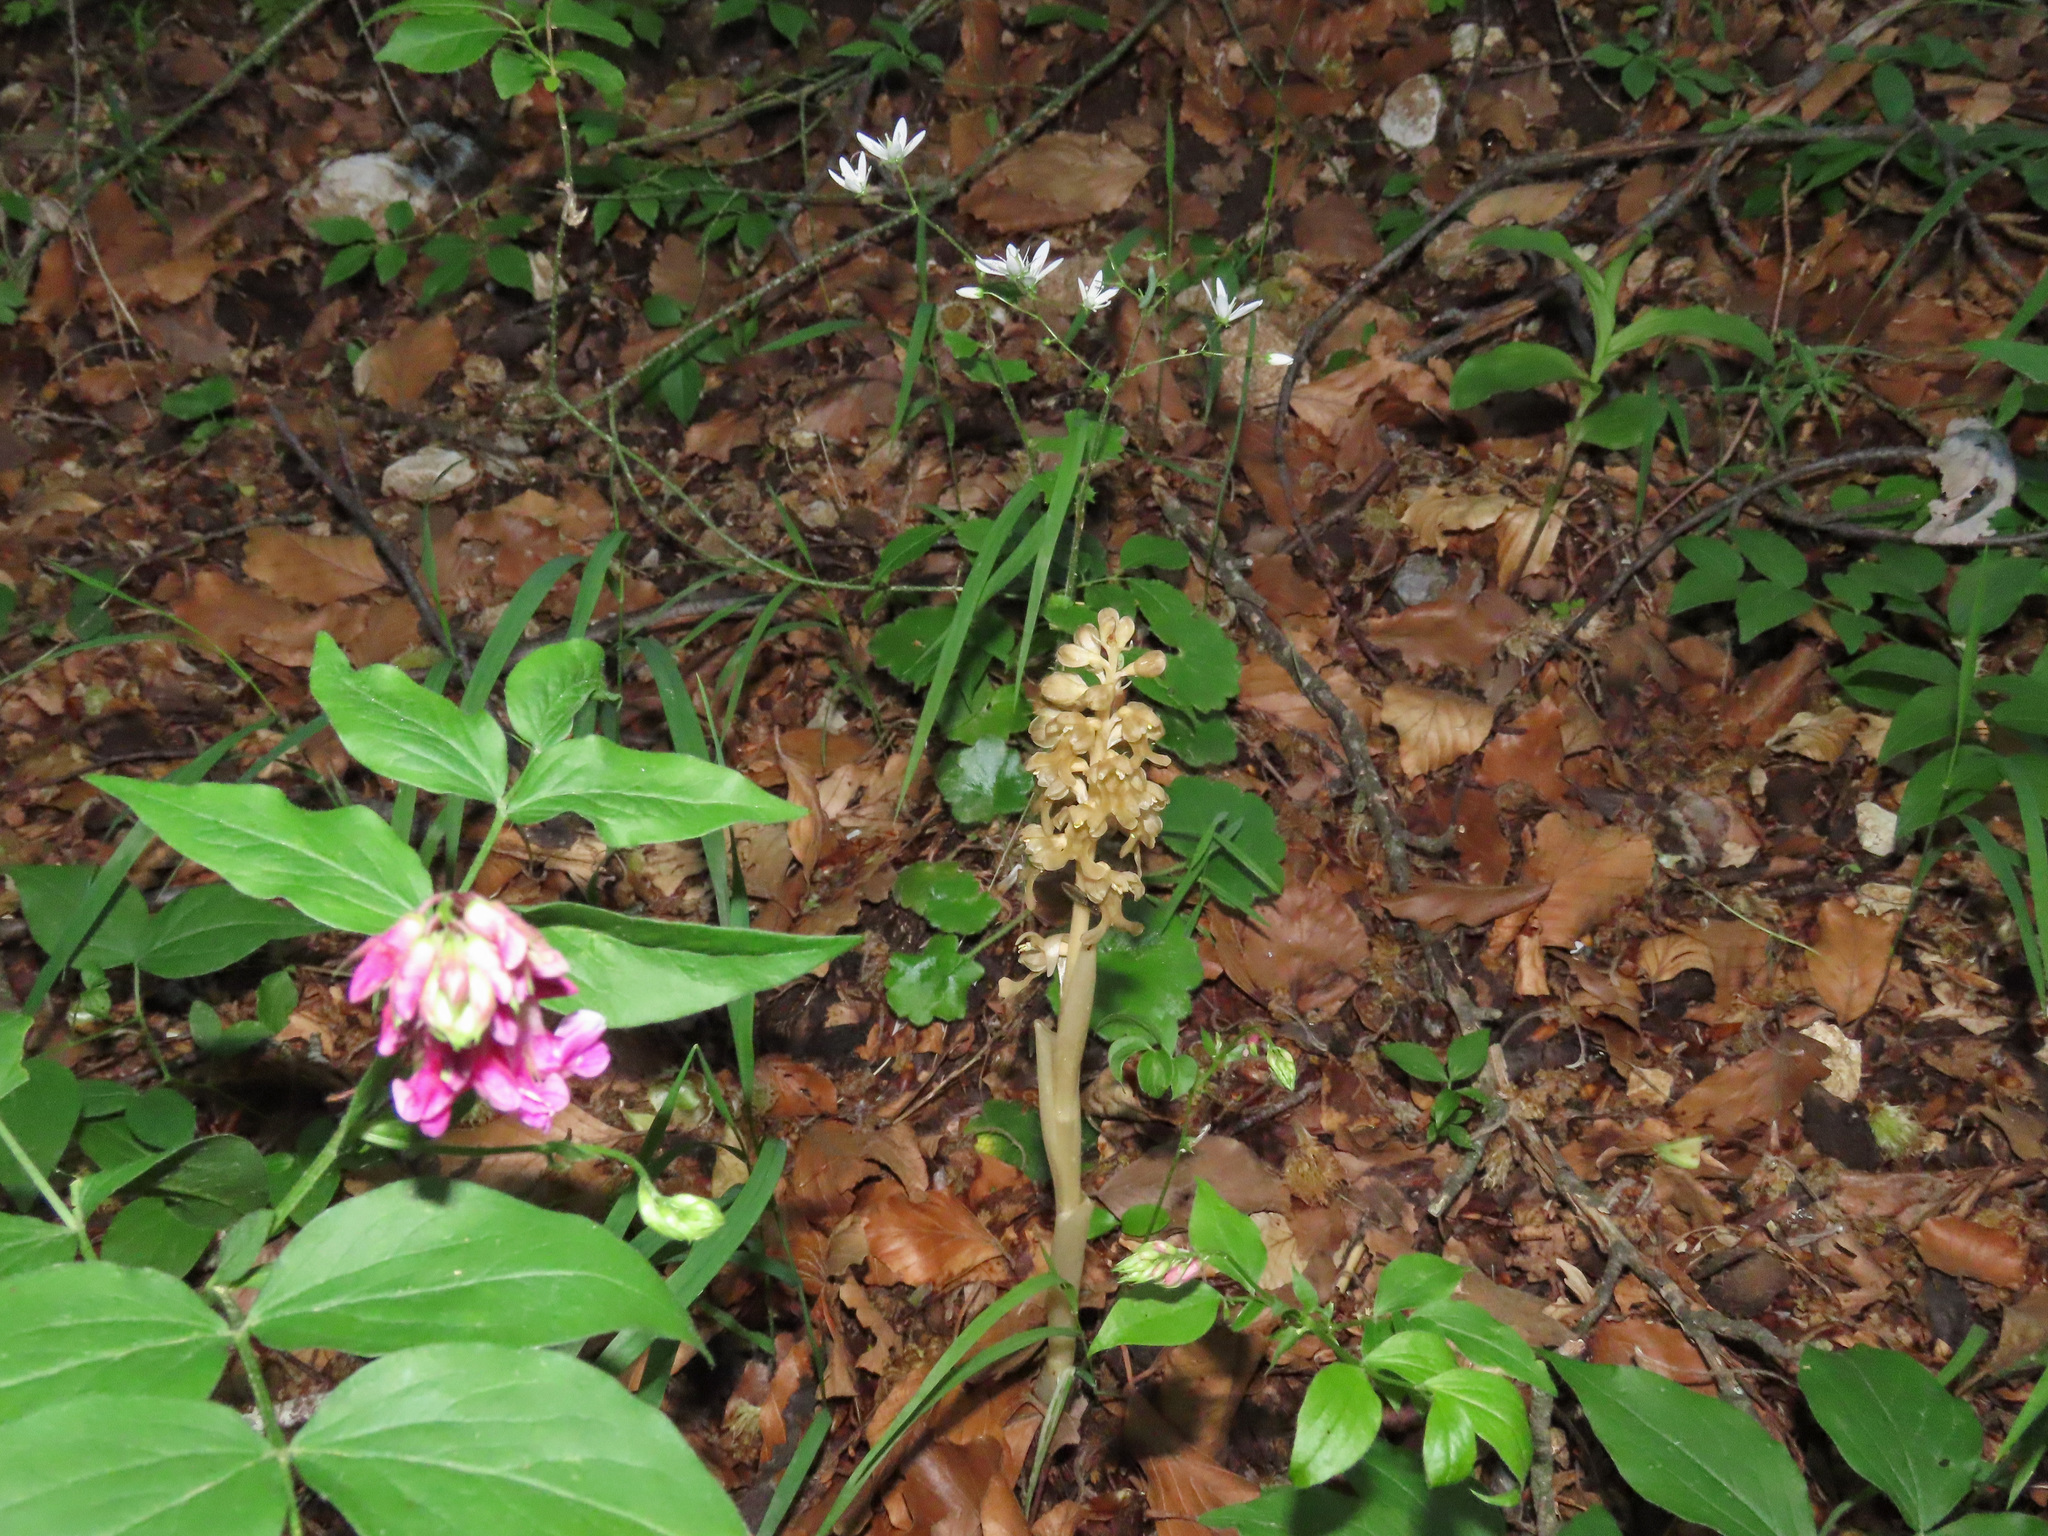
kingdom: Plantae
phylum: Tracheophyta
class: Liliopsida
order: Asparagales
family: Orchidaceae
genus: Neottia
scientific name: Neottia nidus-avis
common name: Bird's-nest orchid
